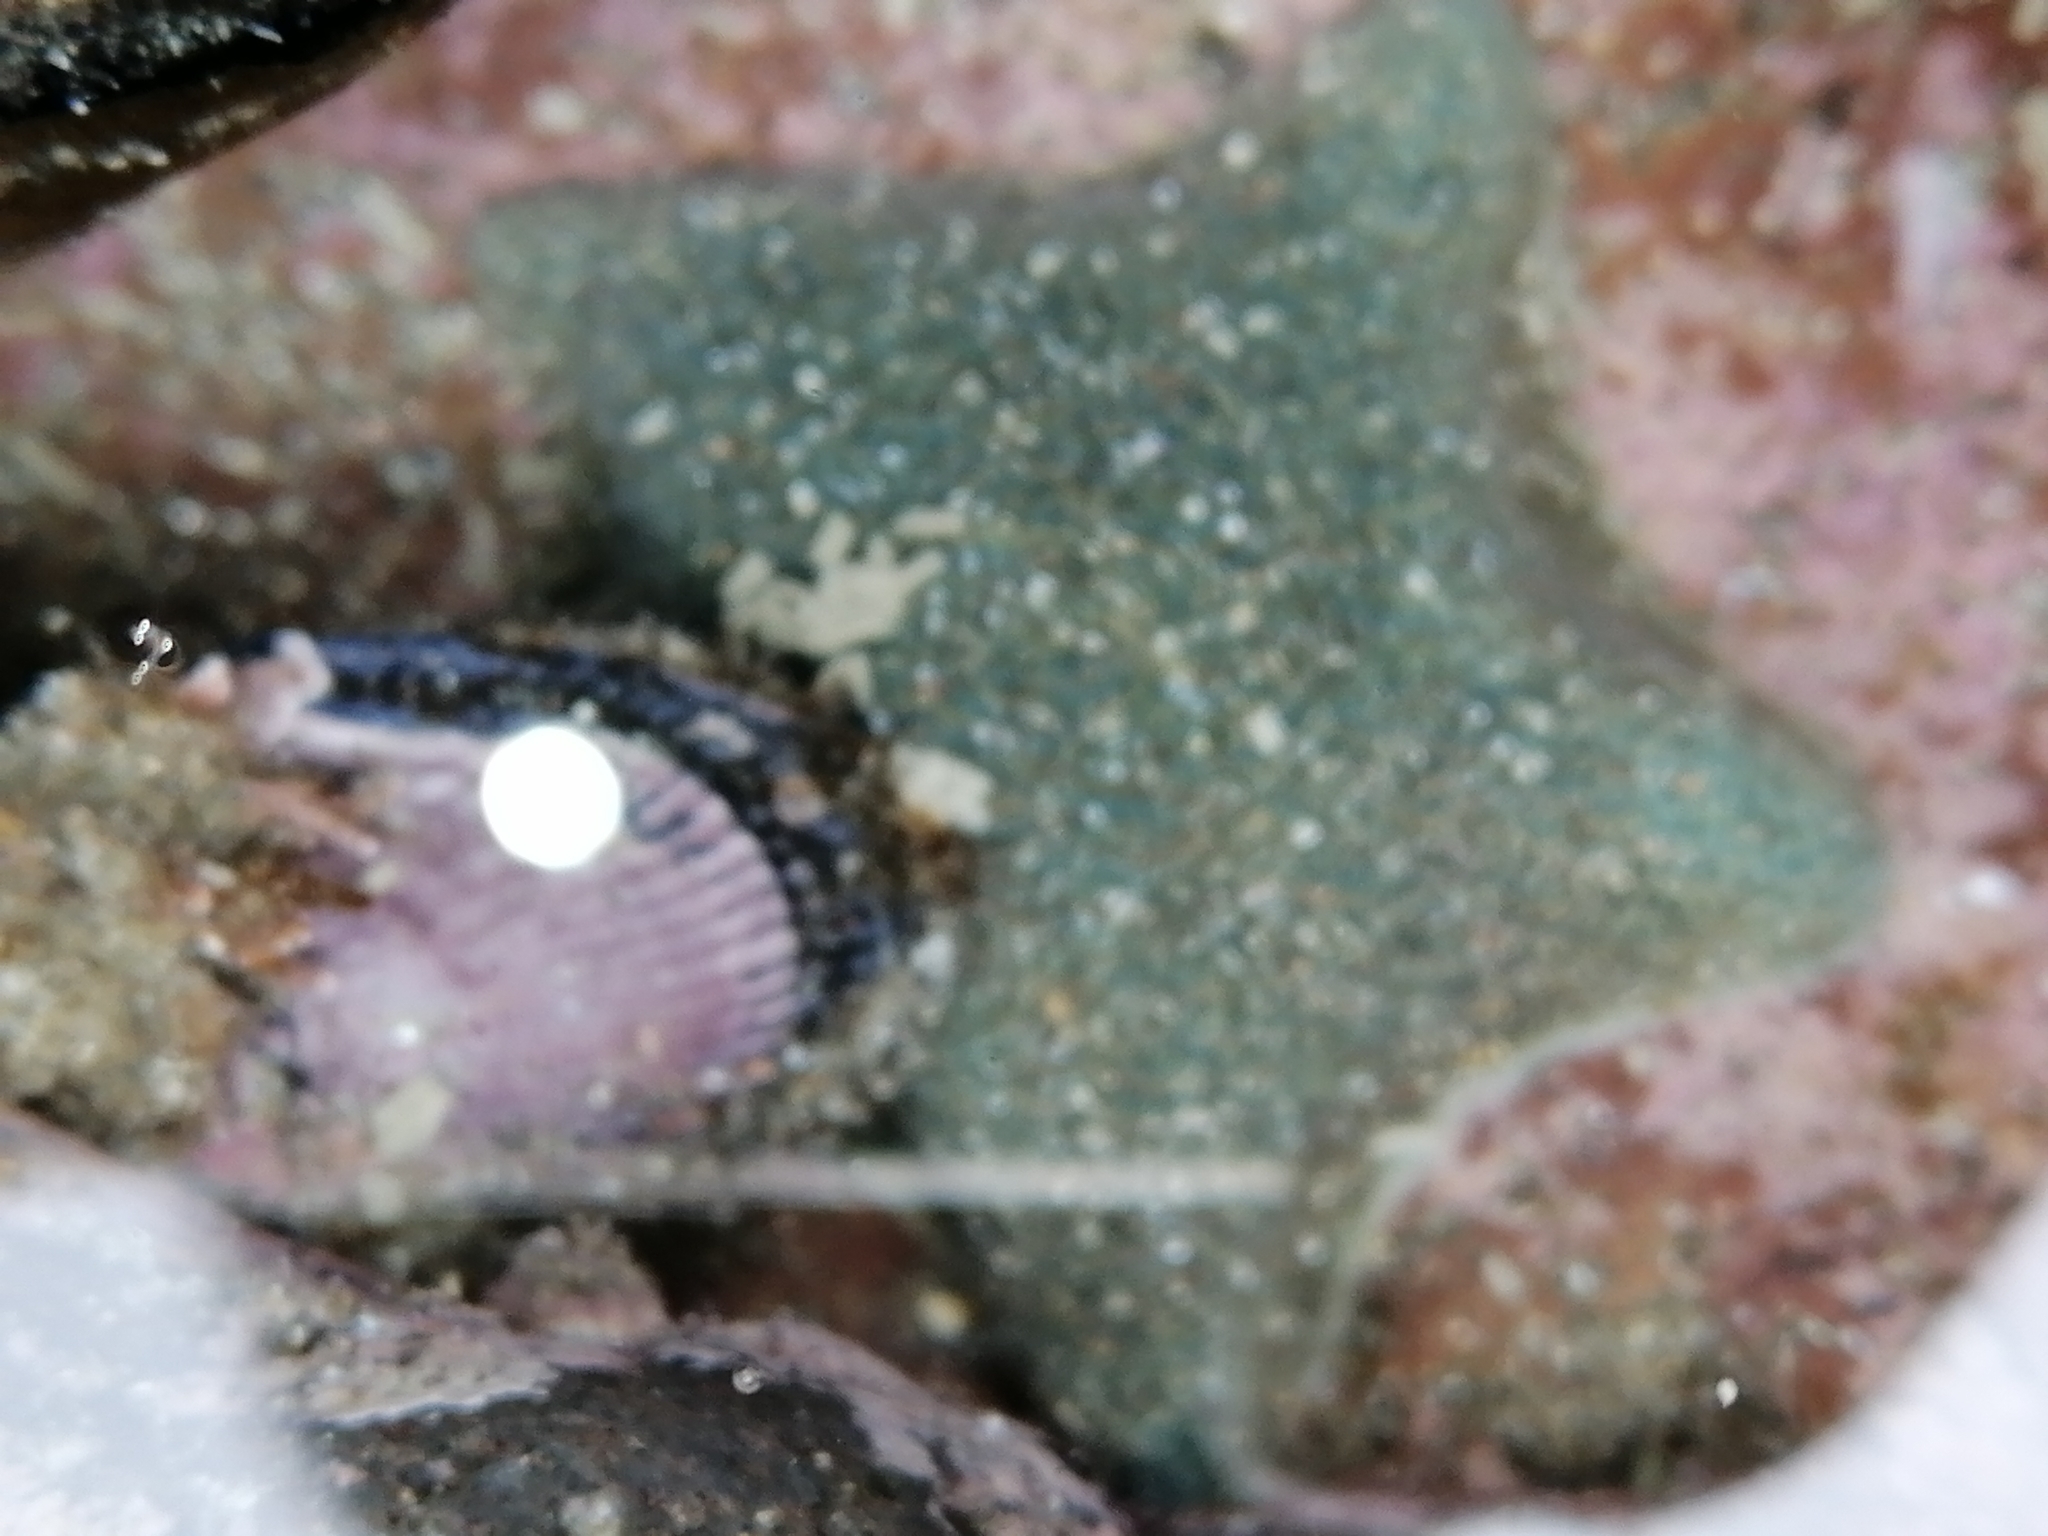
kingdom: Animalia
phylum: Echinodermata
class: Asteroidea
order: Valvatida
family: Asterinidae
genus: Patiriella
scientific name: Patiriella regularis
